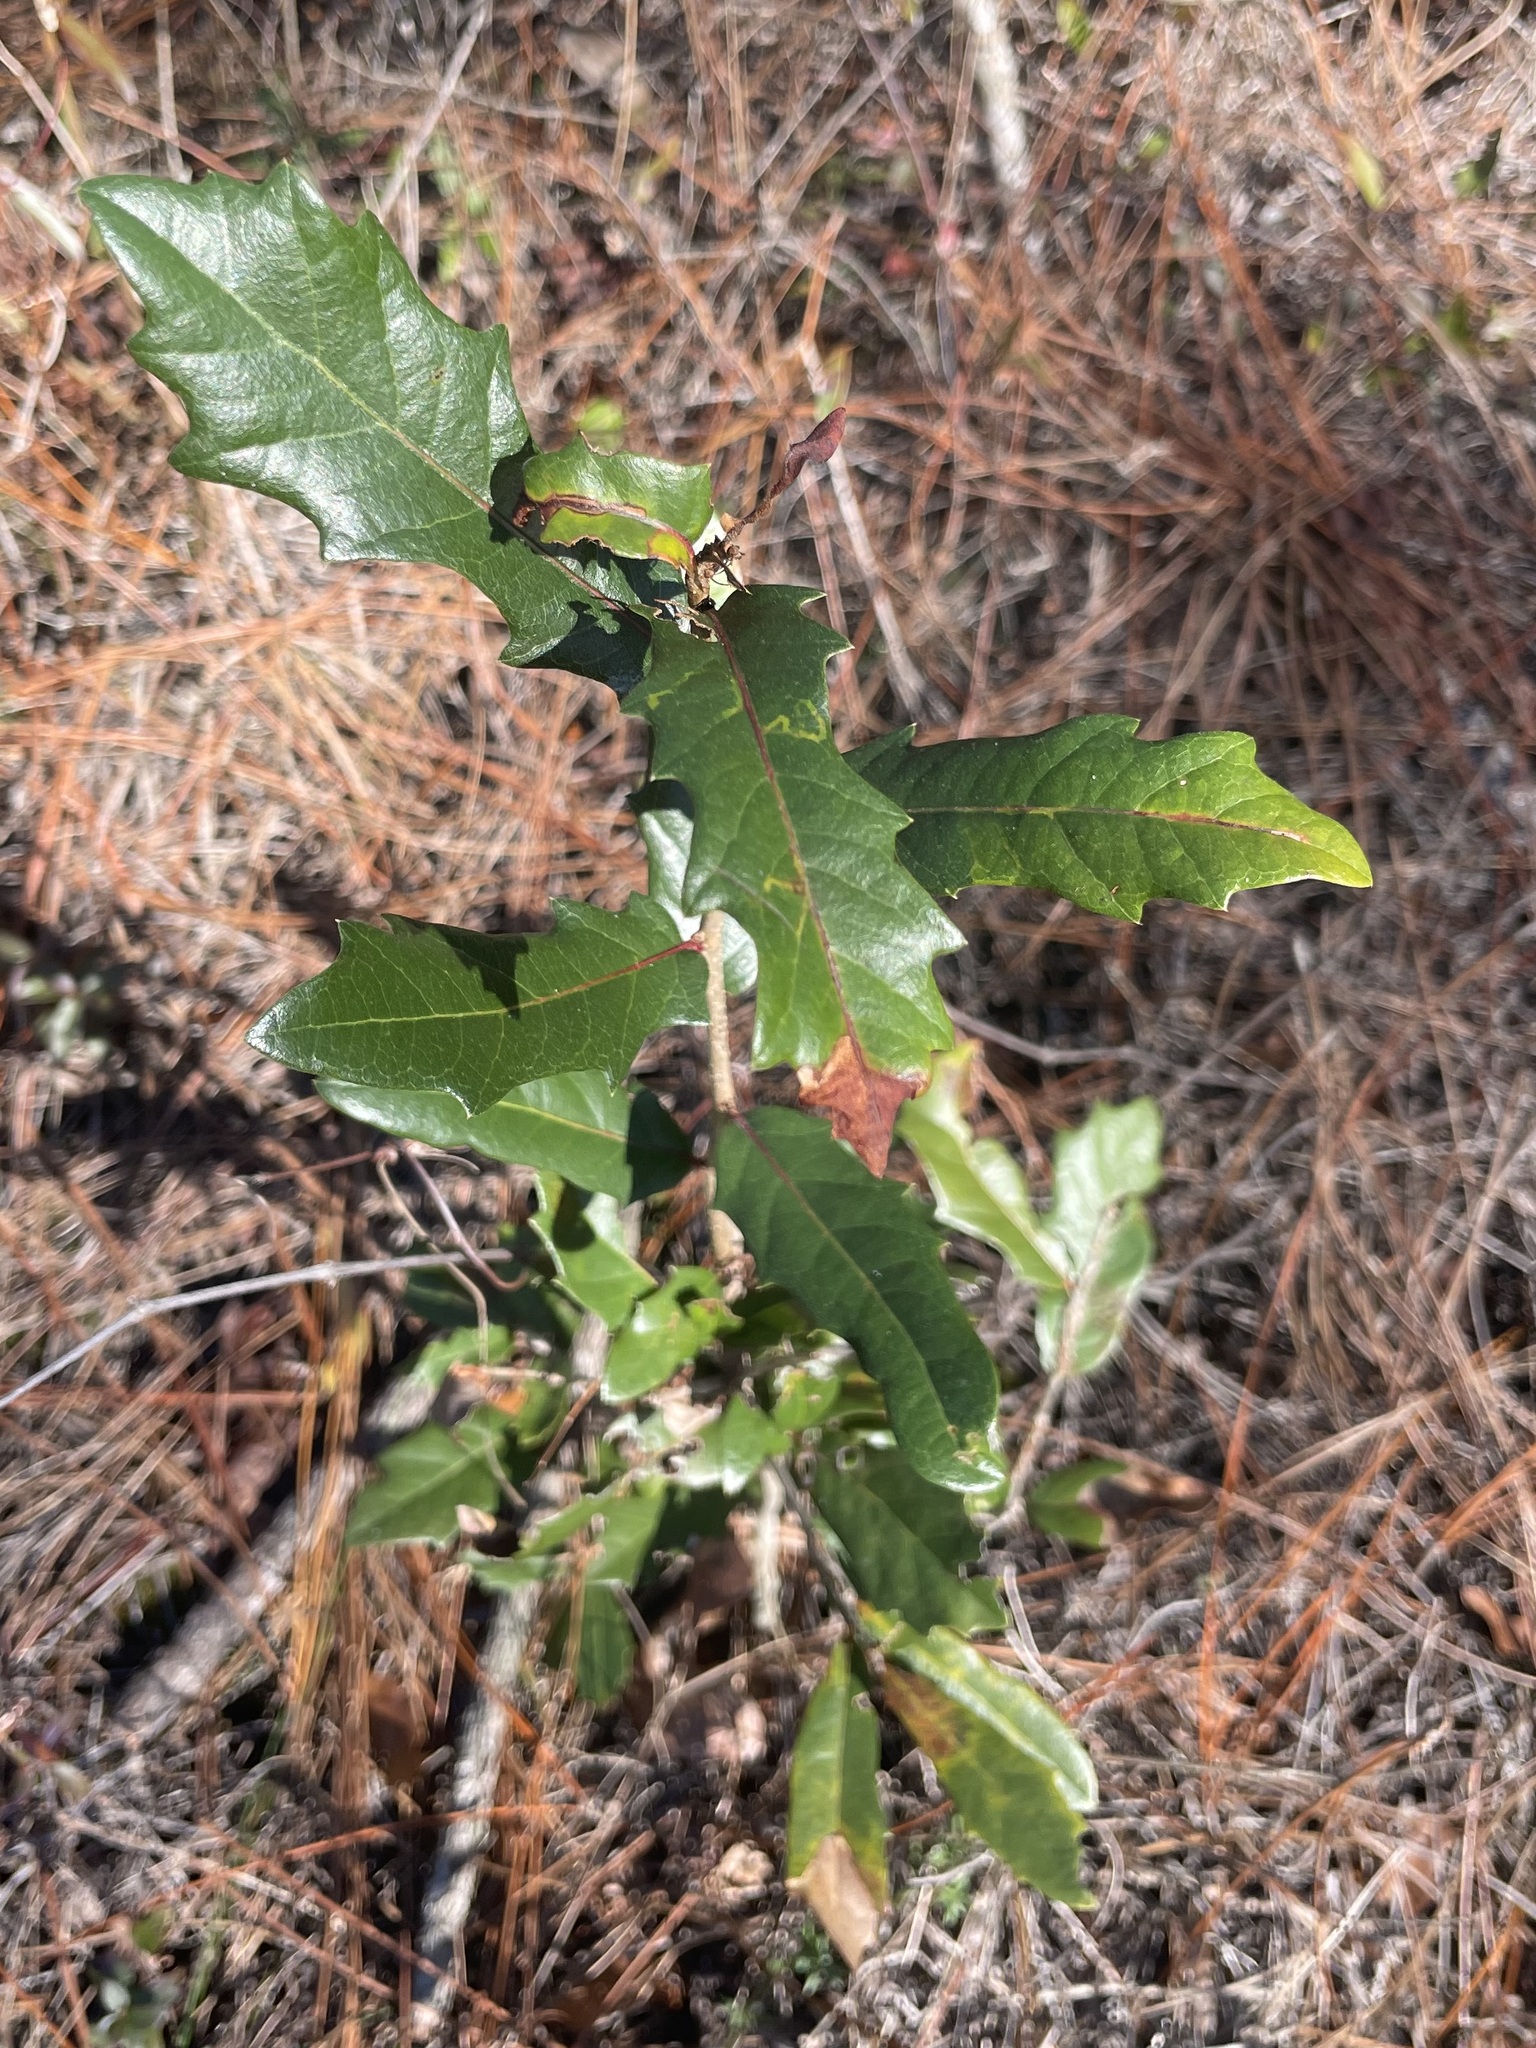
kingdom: Plantae
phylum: Tracheophyta
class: Magnoliopsida
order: Fagales
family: Fagaceae
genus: Quercus
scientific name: Quercus virginiana
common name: Southern live oak
